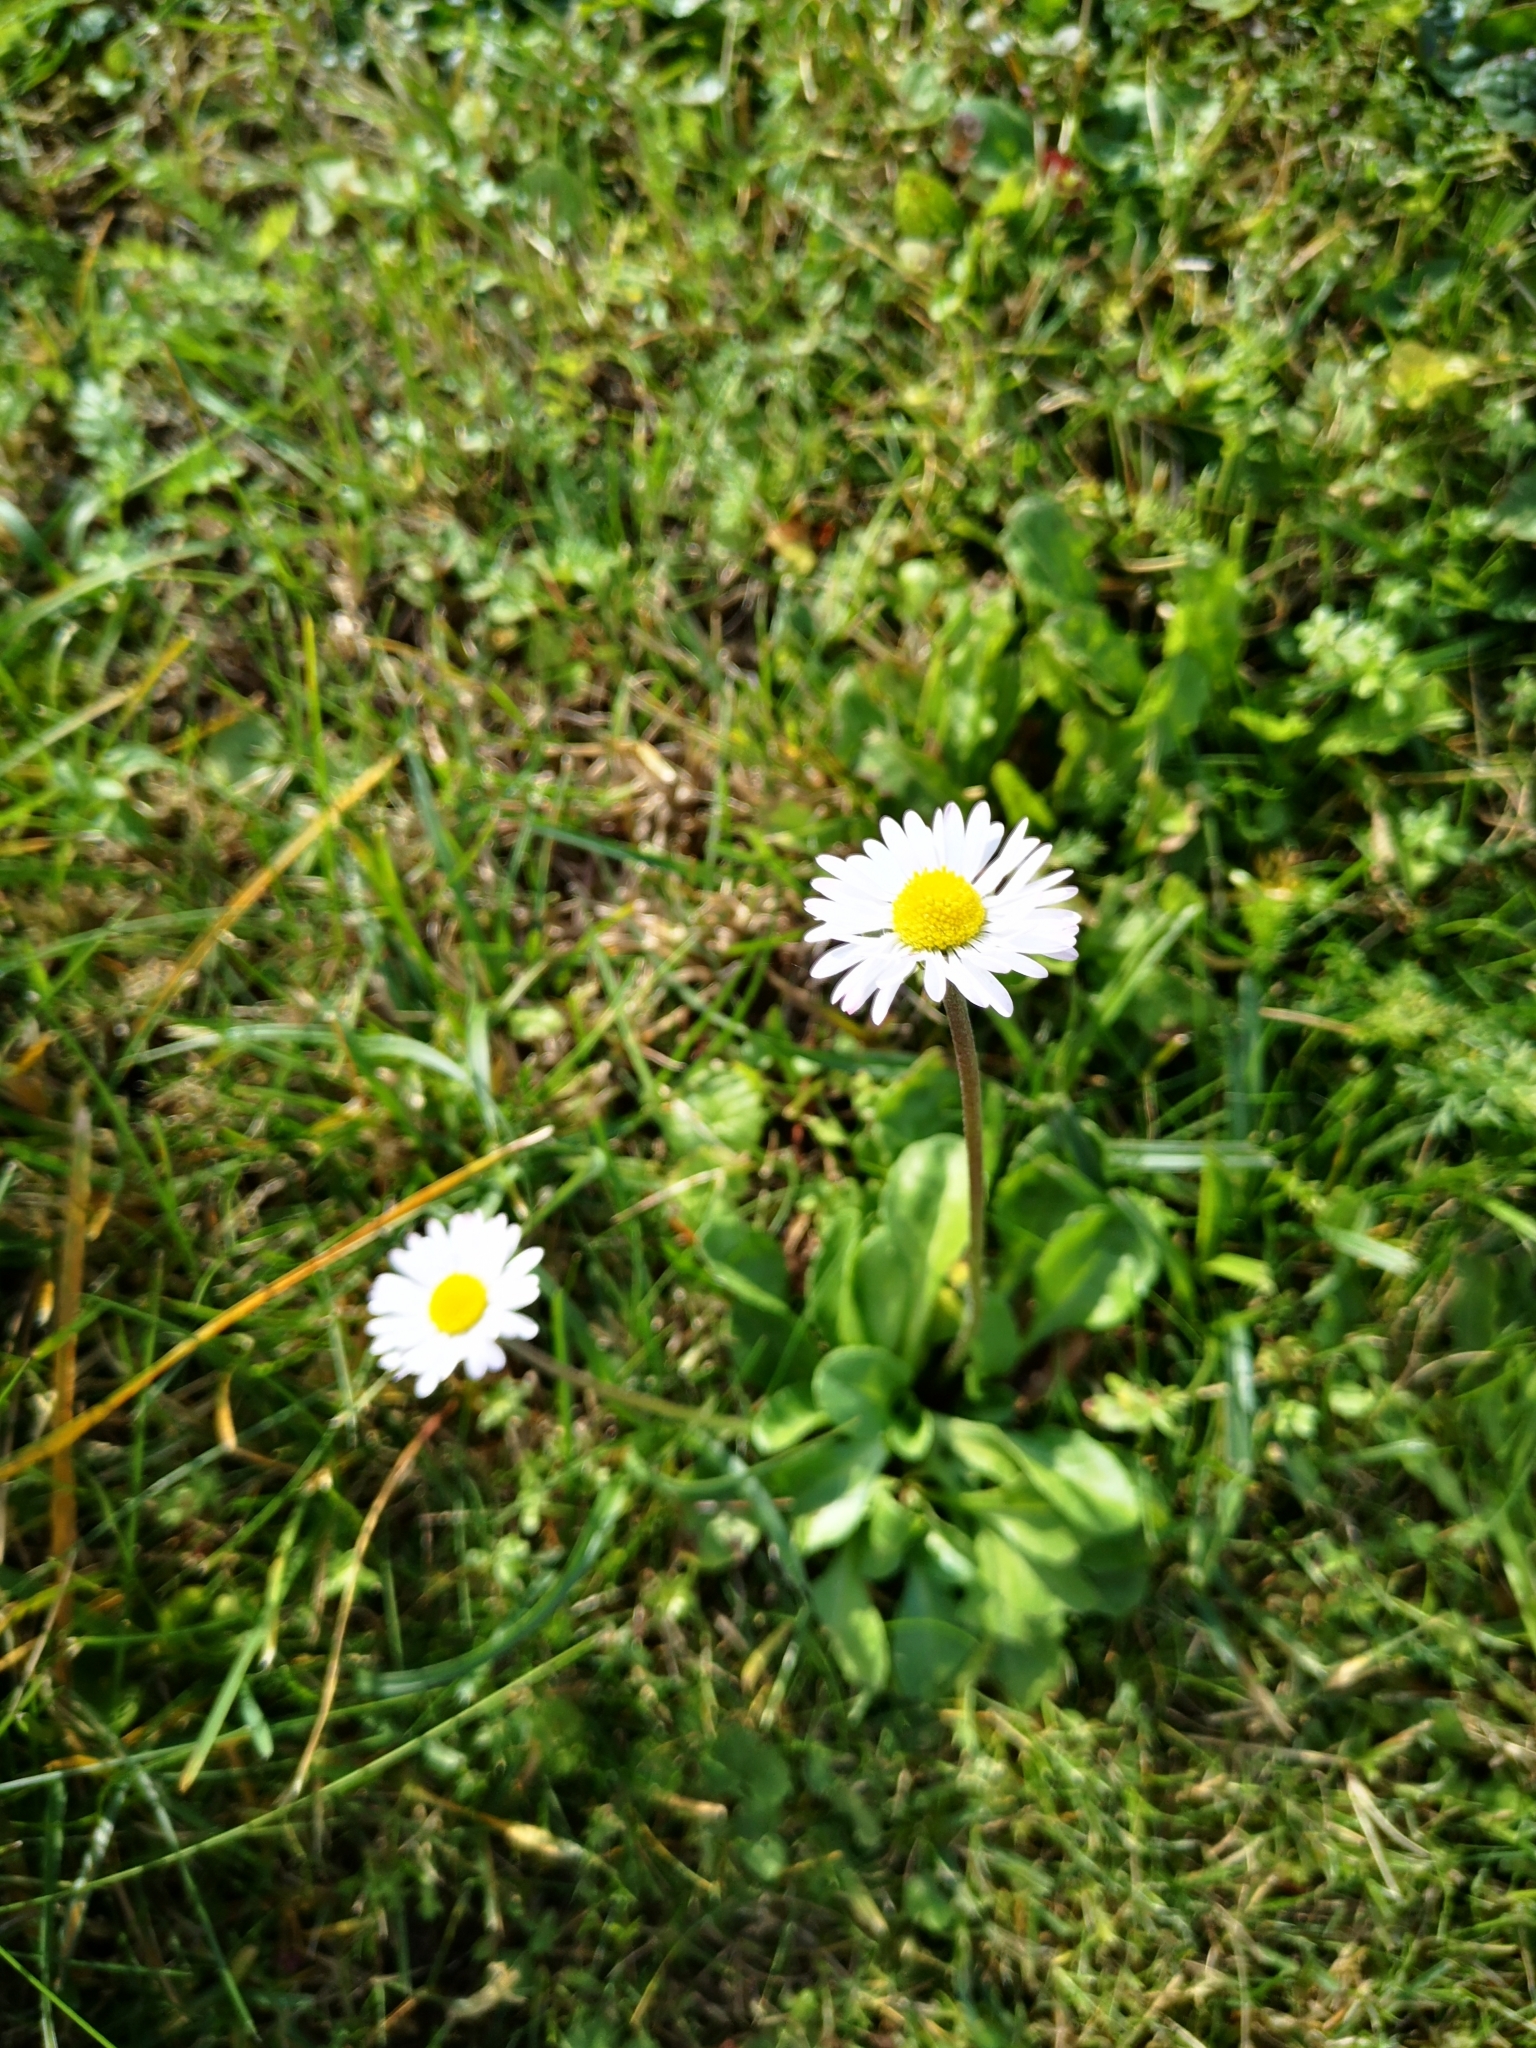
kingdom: Plantae
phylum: Tracheophyta
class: Magnoliopsida
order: Asterales
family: Asteraceae
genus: Bellis
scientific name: Bellis perennis
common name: Lawndaisy
